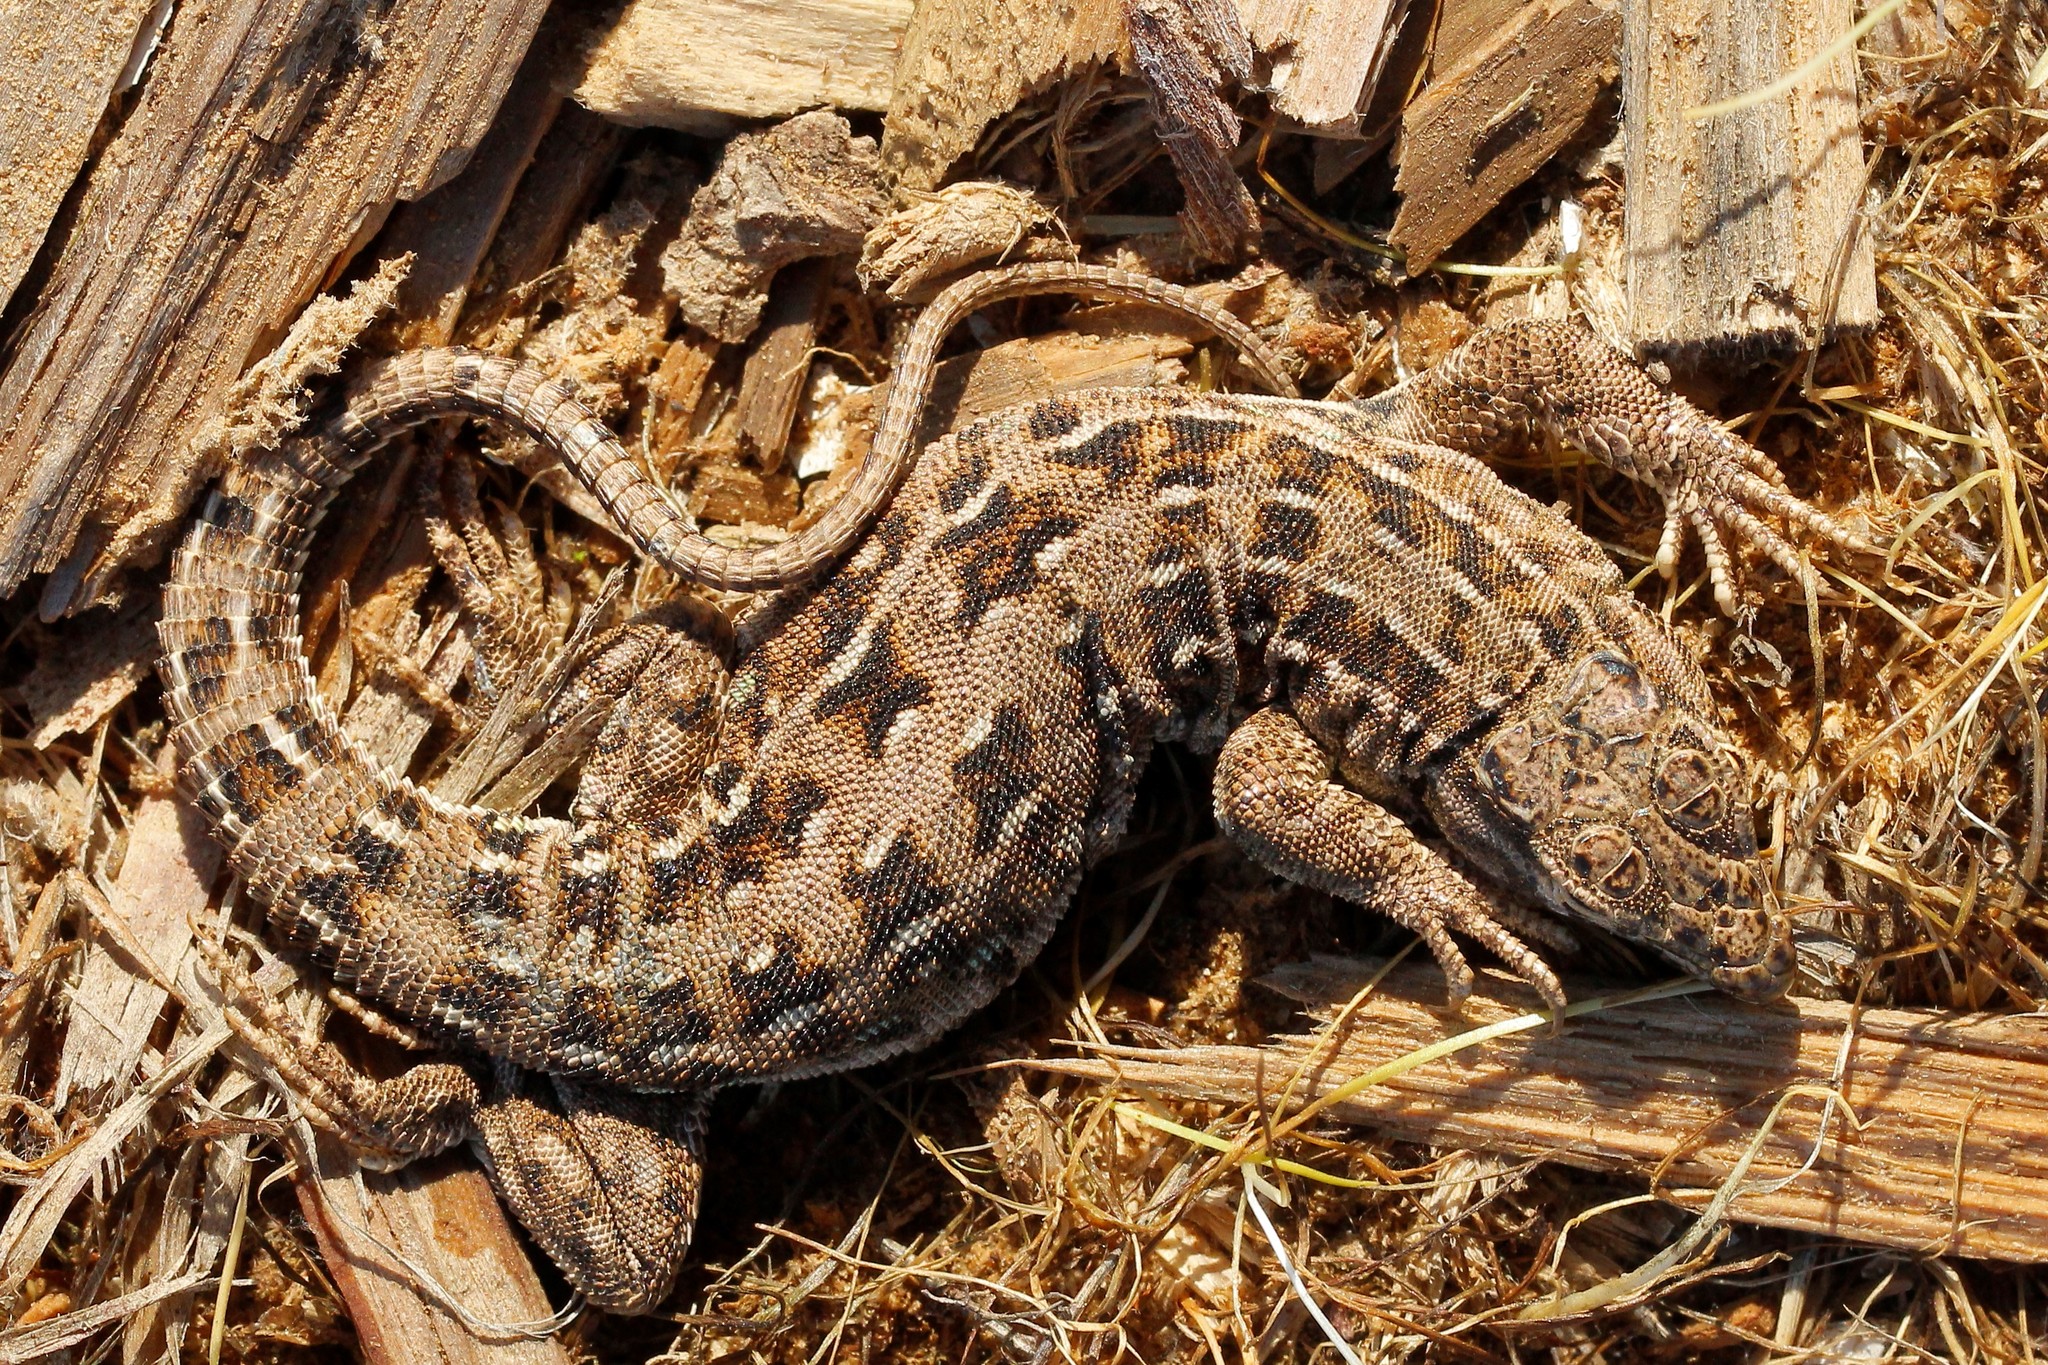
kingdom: Animalia
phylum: Chordata
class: Squamata
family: Lacertidae
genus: Eremias
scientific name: Eremias arguta
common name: Racerunner
